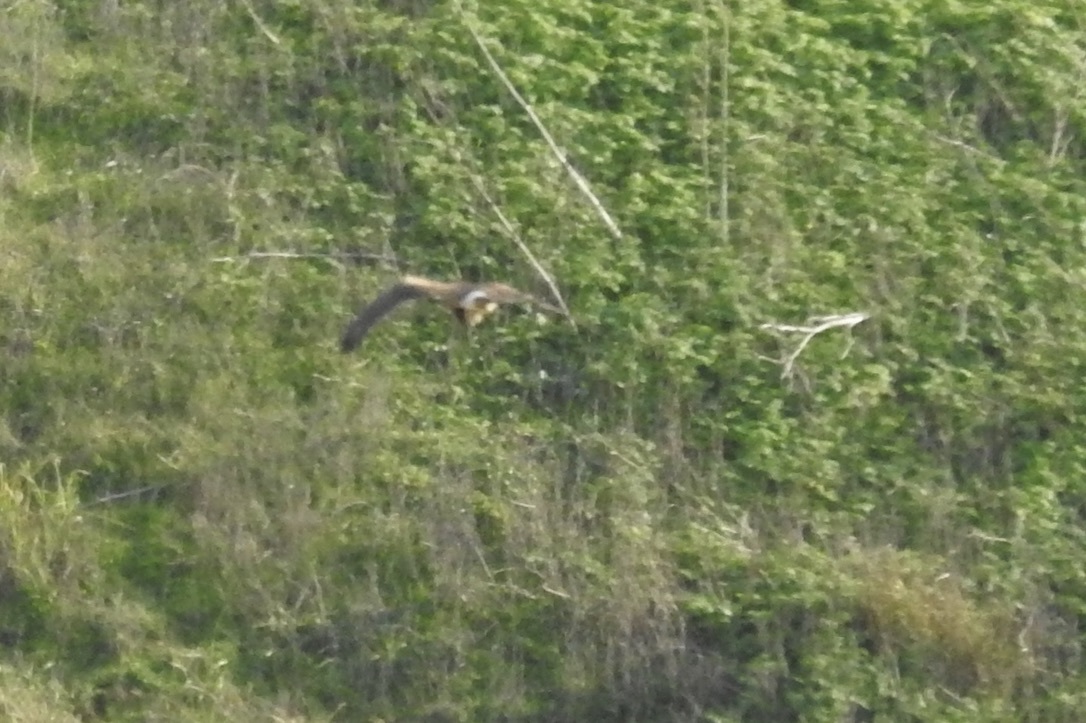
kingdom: Animalia
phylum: Chordata
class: Aves
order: Accipitriformes
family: Accipitridae
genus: Circus
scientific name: Circus cyaneus
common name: Hen harrier
